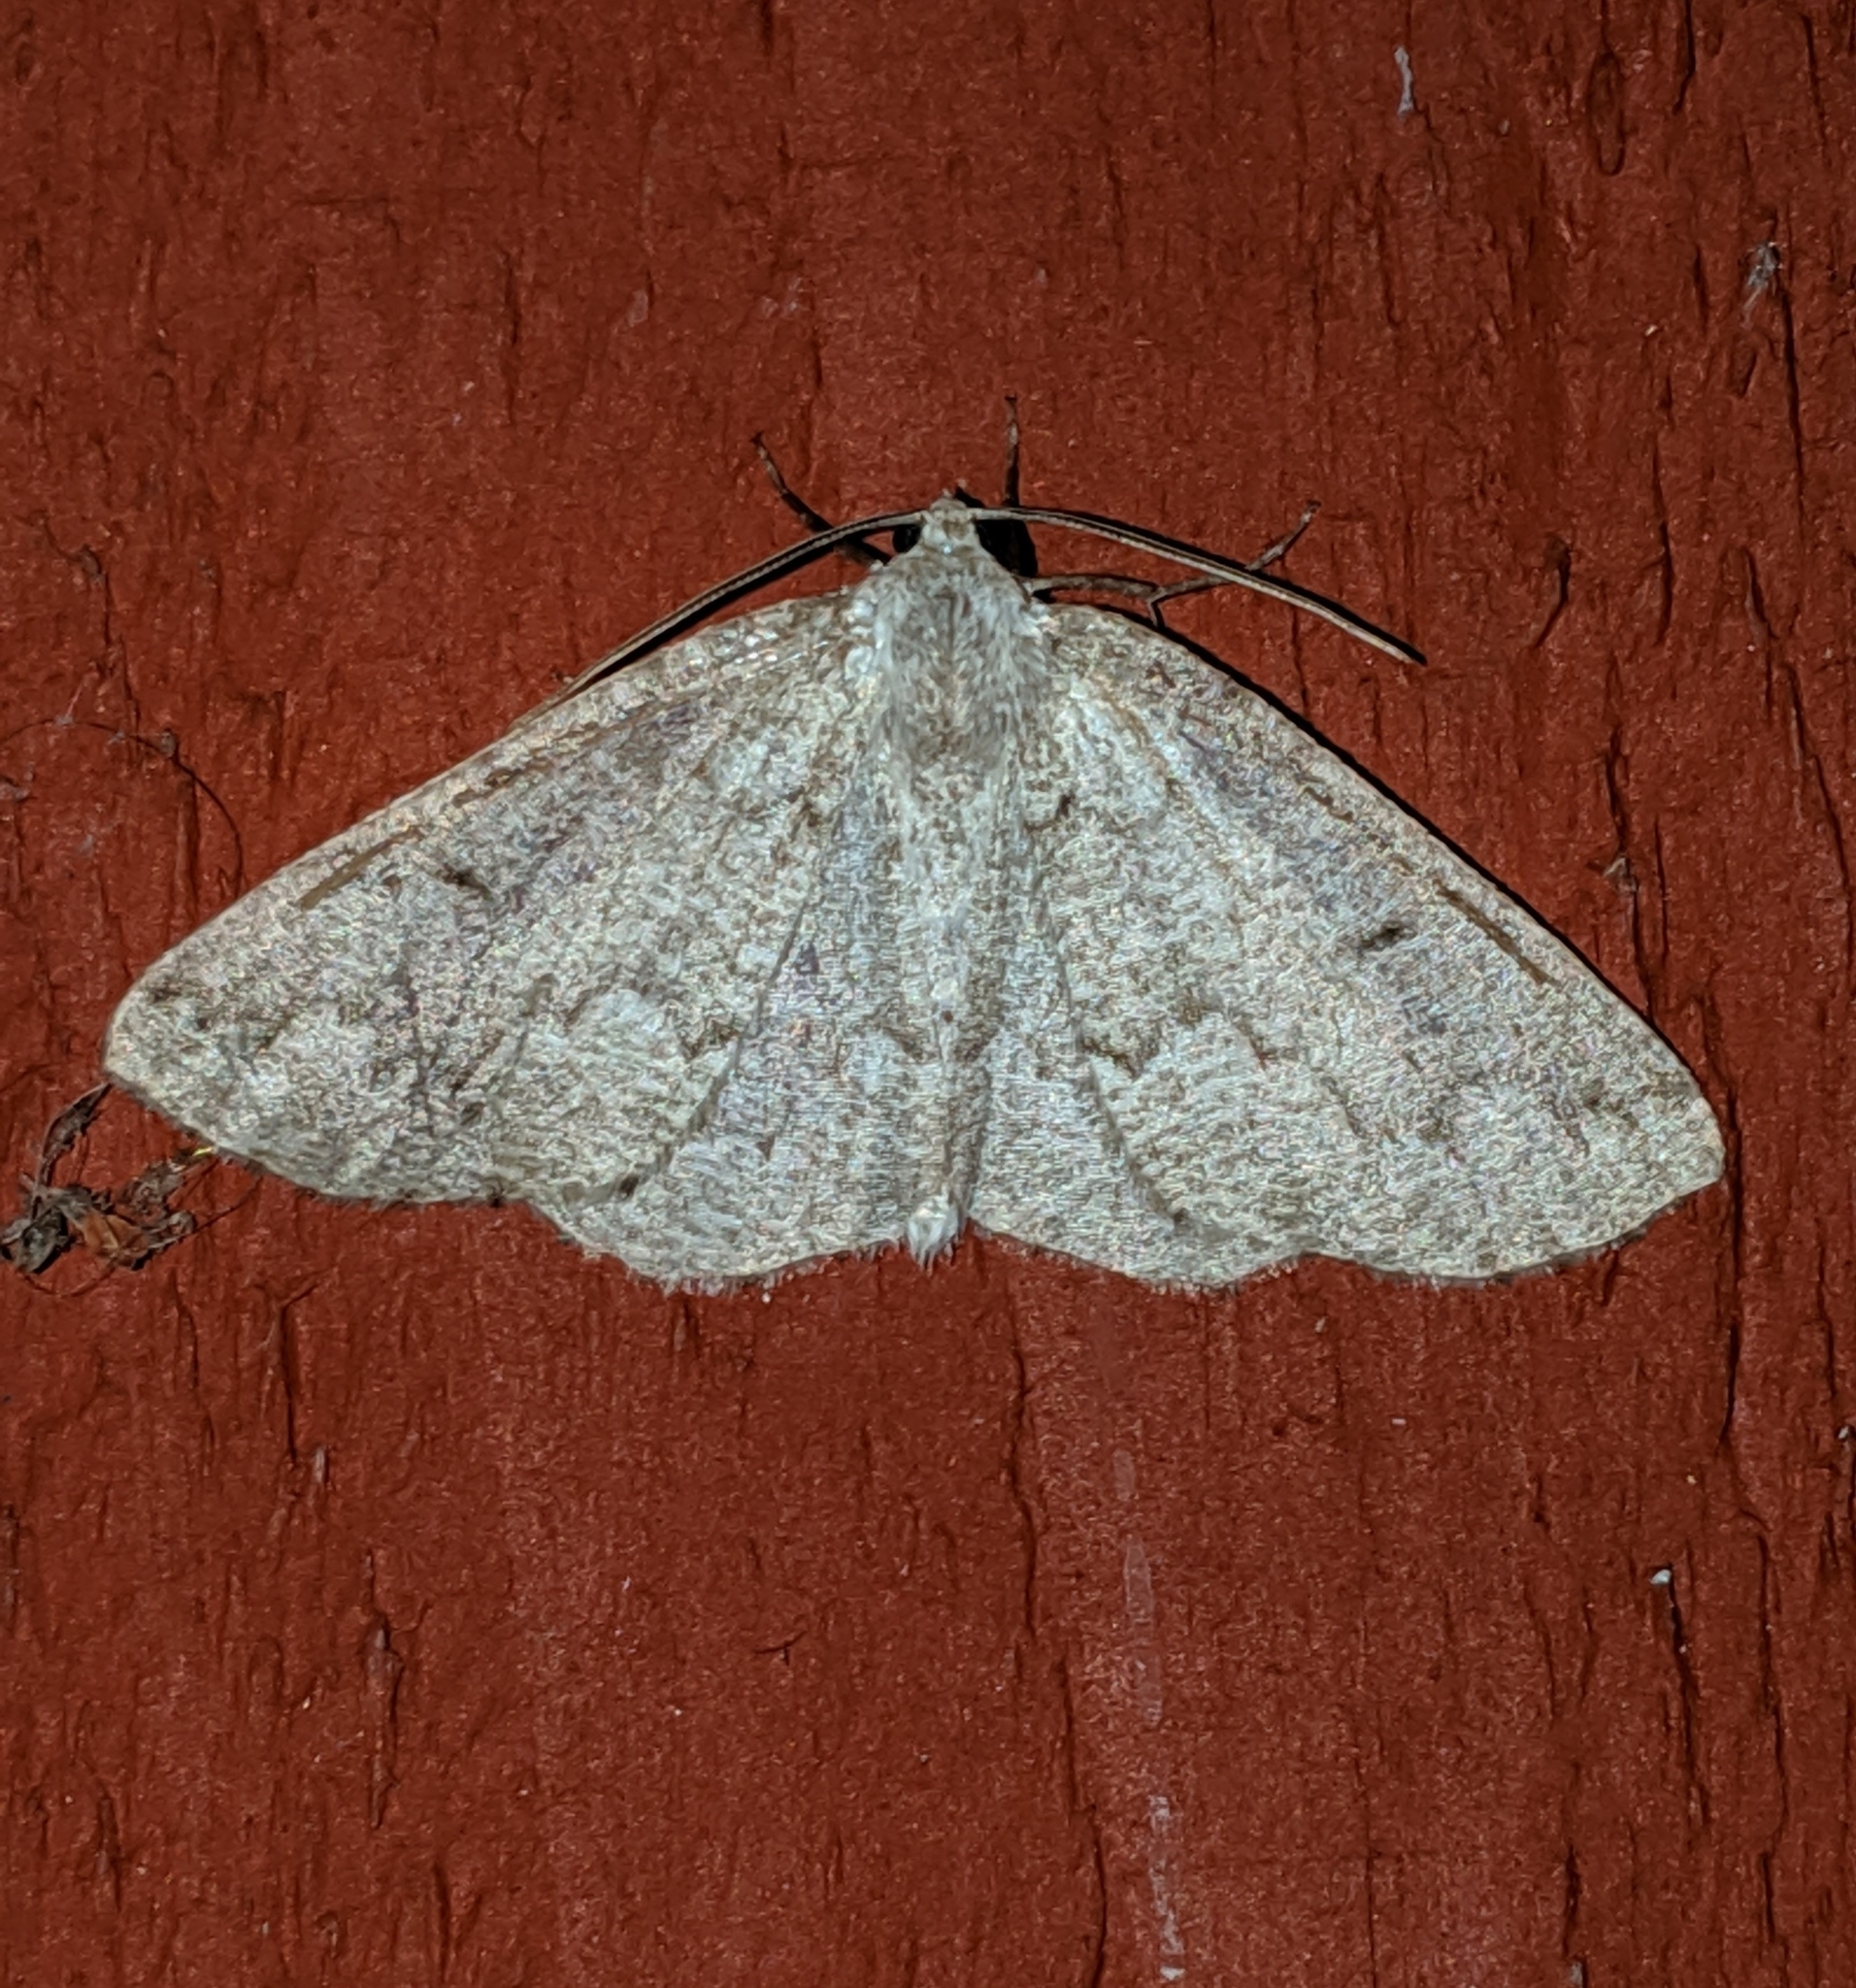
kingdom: Animalia
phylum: Arthropoda
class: Insecta
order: Lepidoptera
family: Geometridae
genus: Sabulodes
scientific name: Sabulodes
